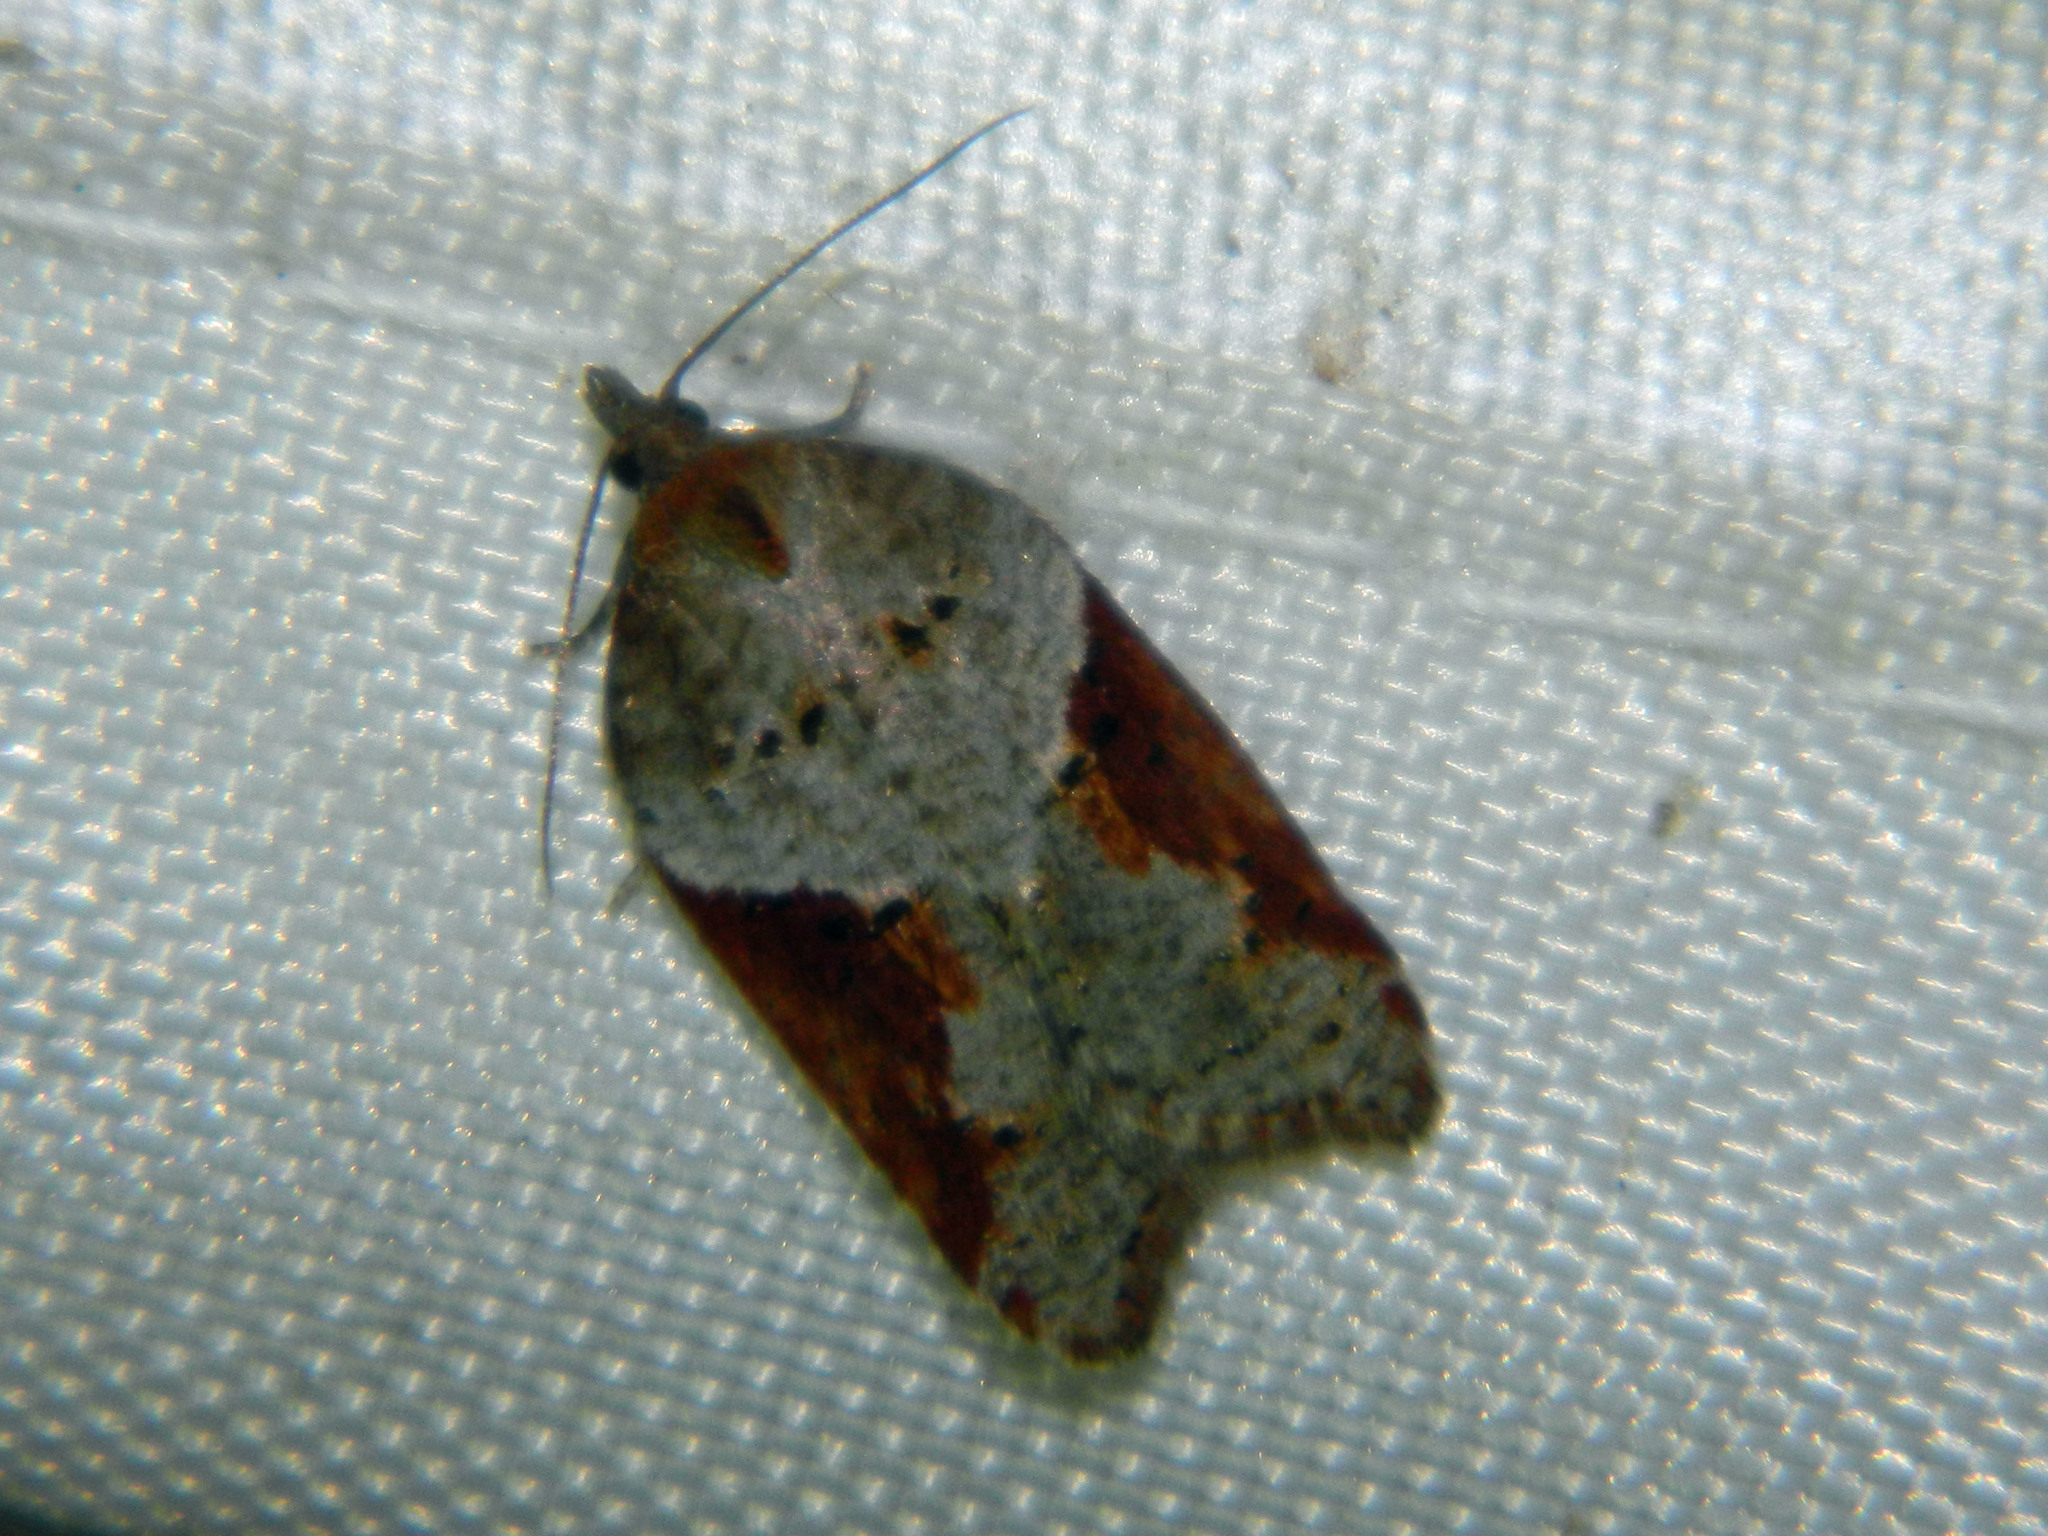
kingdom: Animalia
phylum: Arthropoda
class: Insecta
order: Lepidoptera
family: Tortricidae
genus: Acleris
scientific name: Acleris macdunnoughi
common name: Macdunnough's acleris
